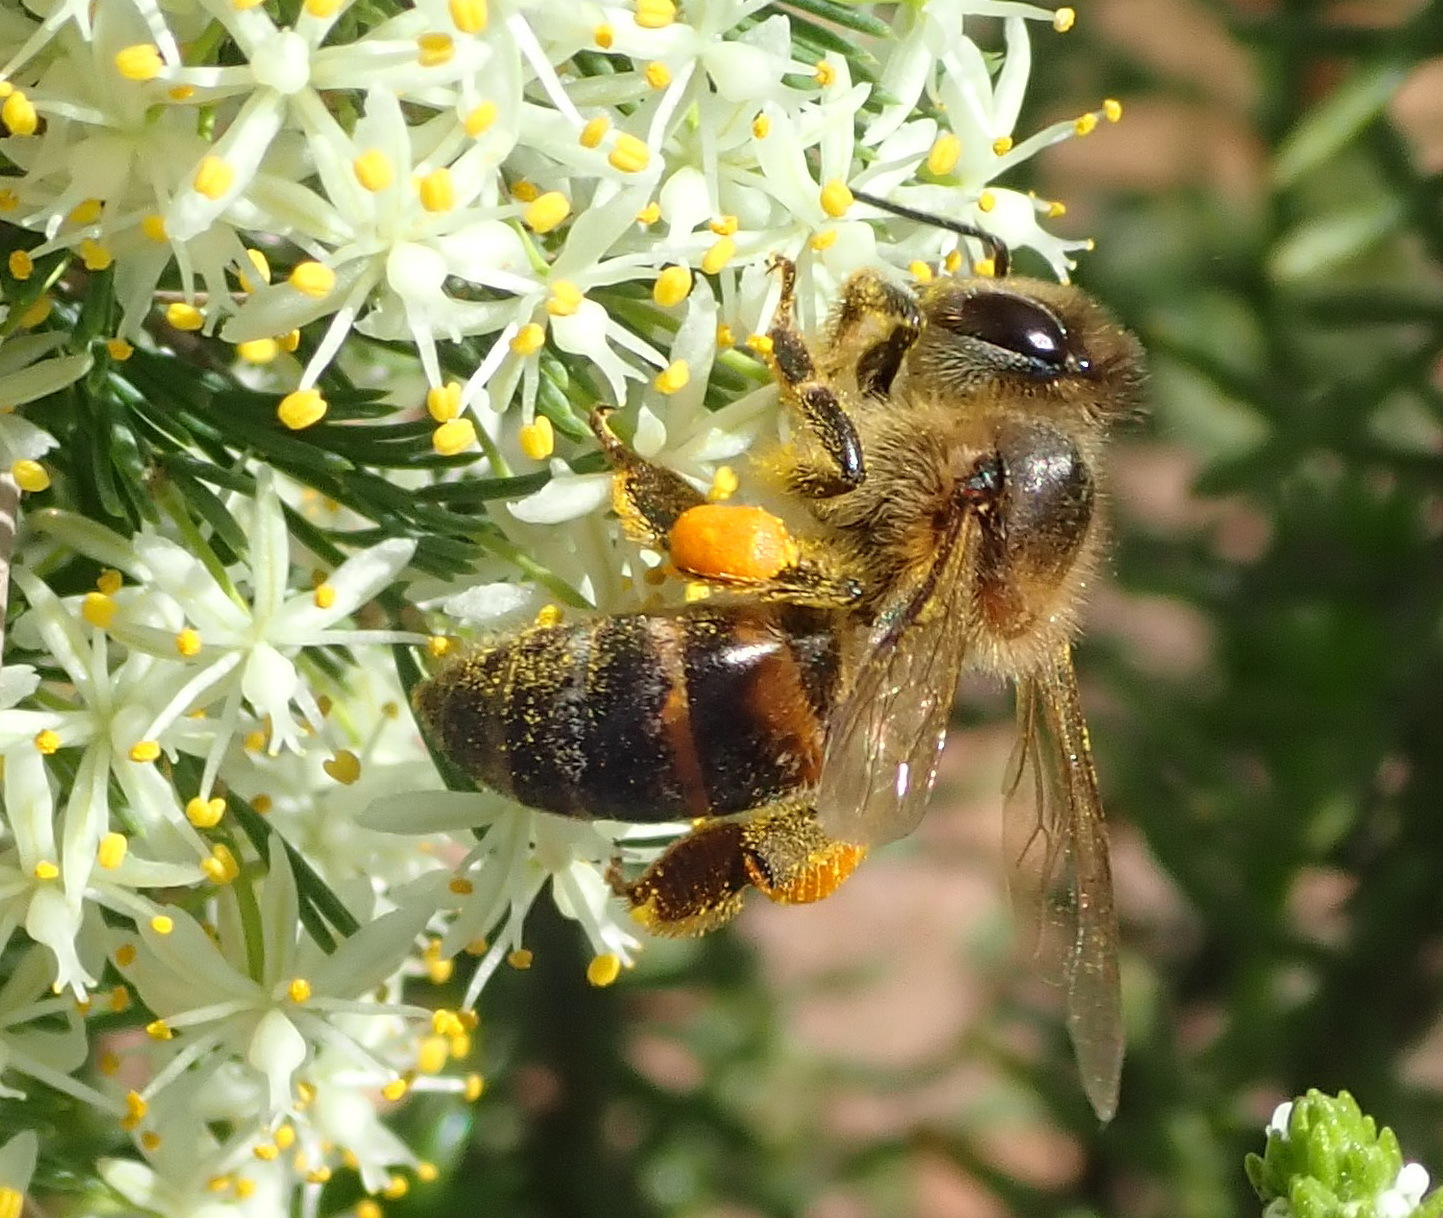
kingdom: Animalia
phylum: Arthropoda
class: Insecta
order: Hymenoptera
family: Apidae
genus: Apis
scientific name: Apis mellifera
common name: Honey bee
